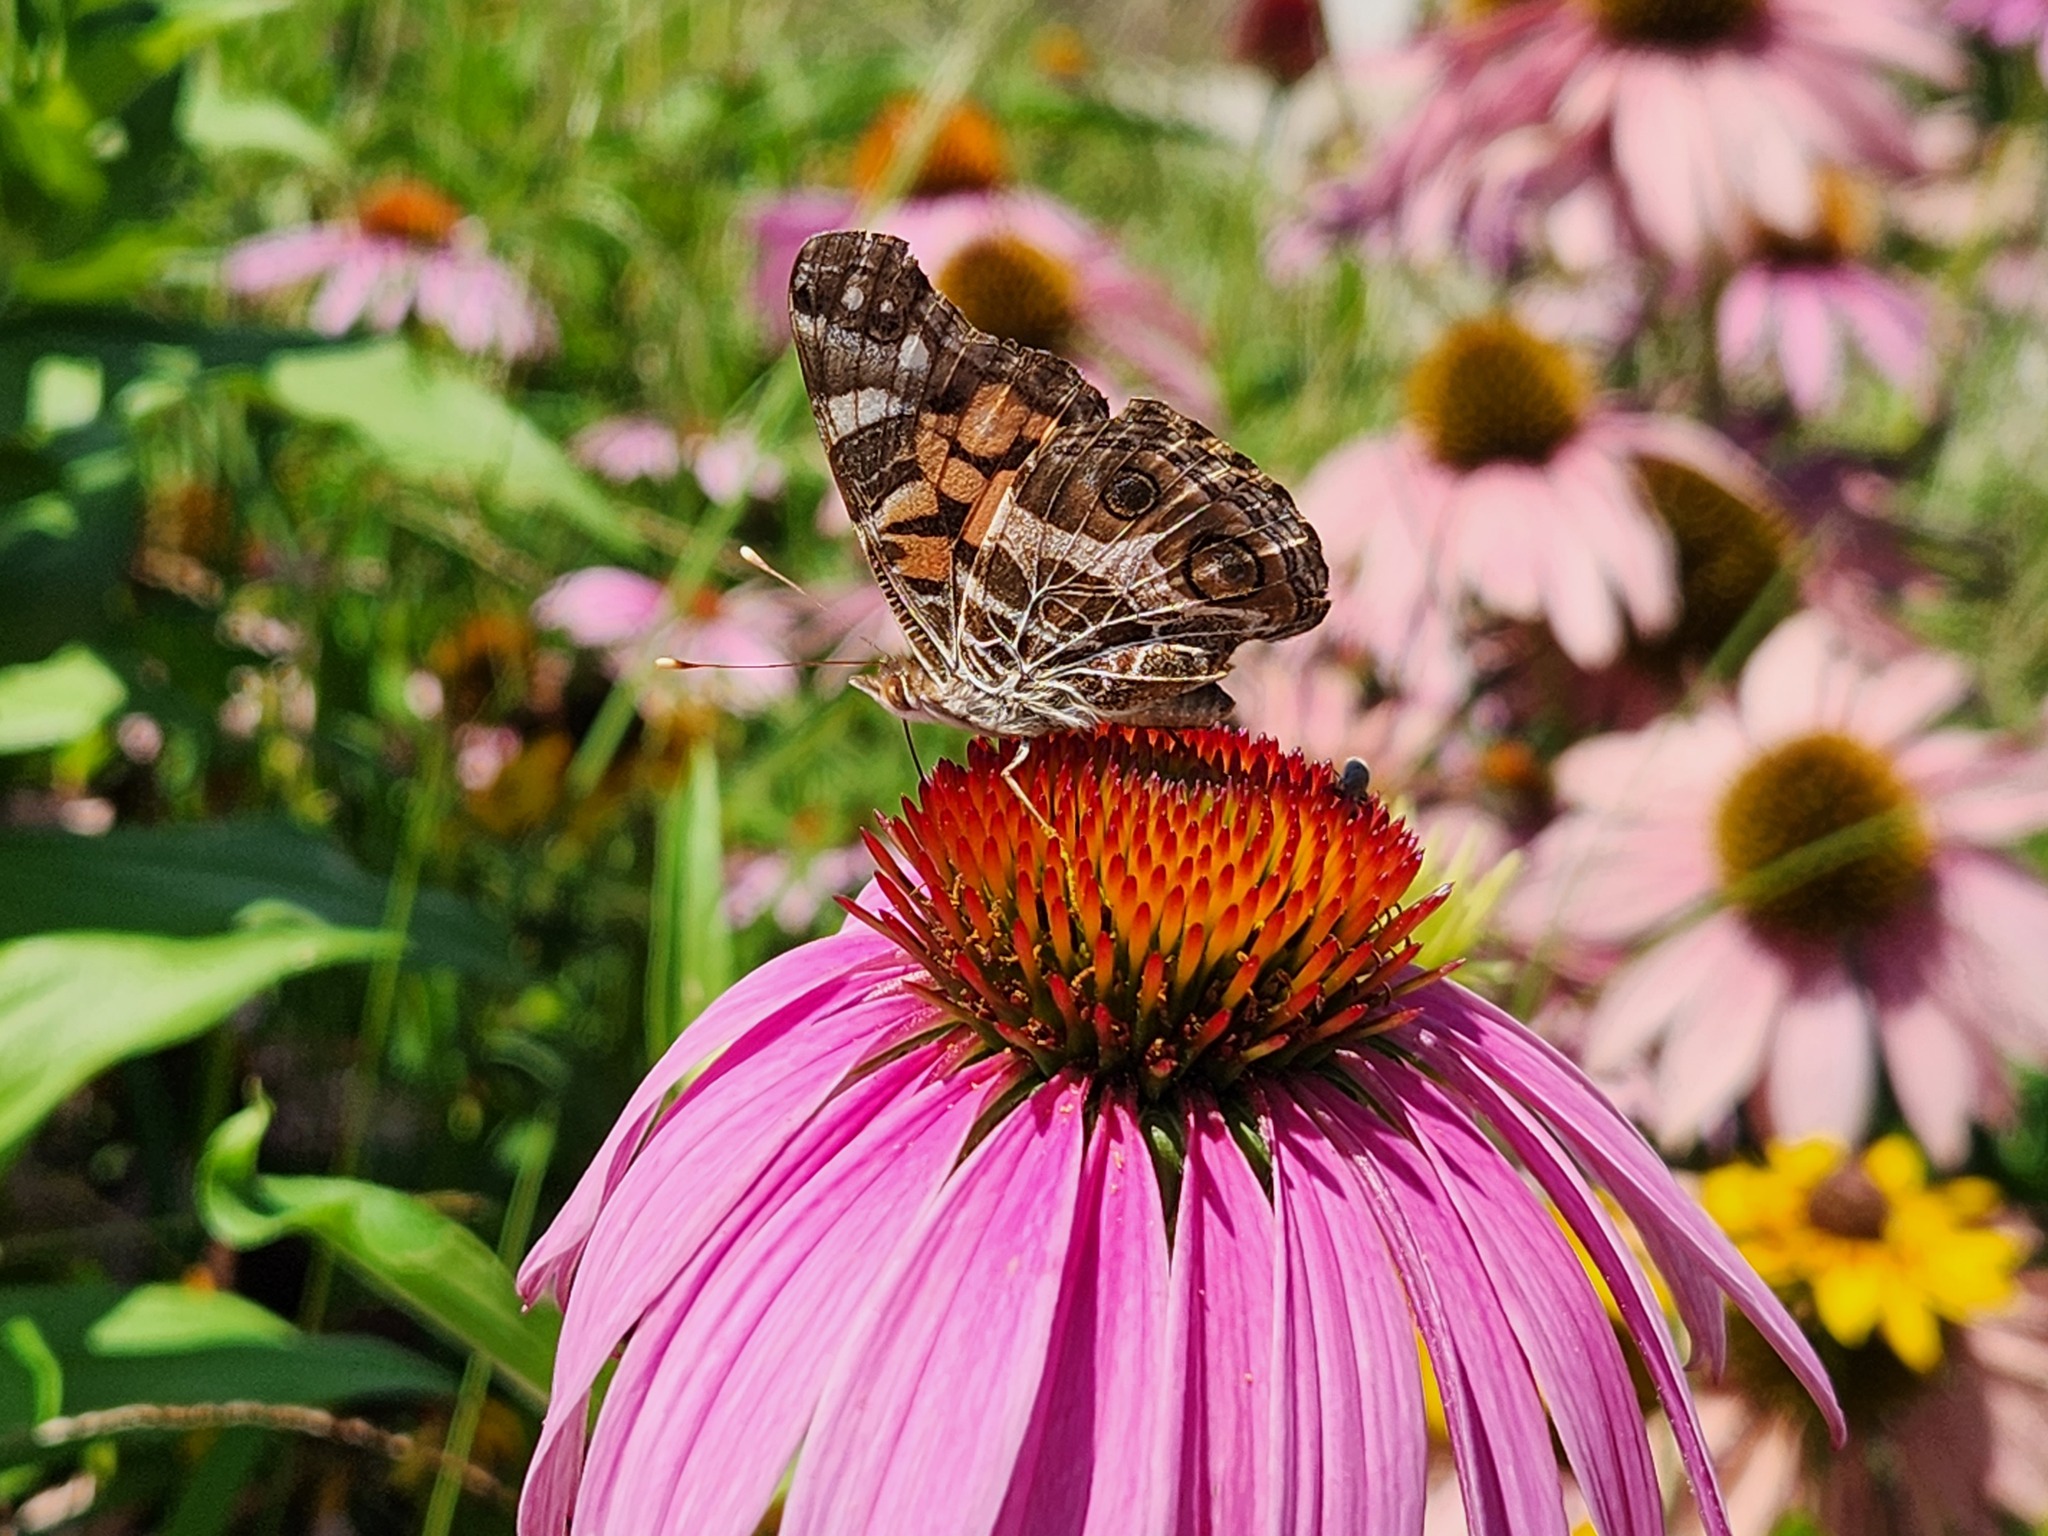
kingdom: Animalia
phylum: Arthropoda
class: Insecta
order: Lepidoptera
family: Nymphalidae
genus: Vanessa
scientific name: Vanessa virginiensis
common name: American lady
